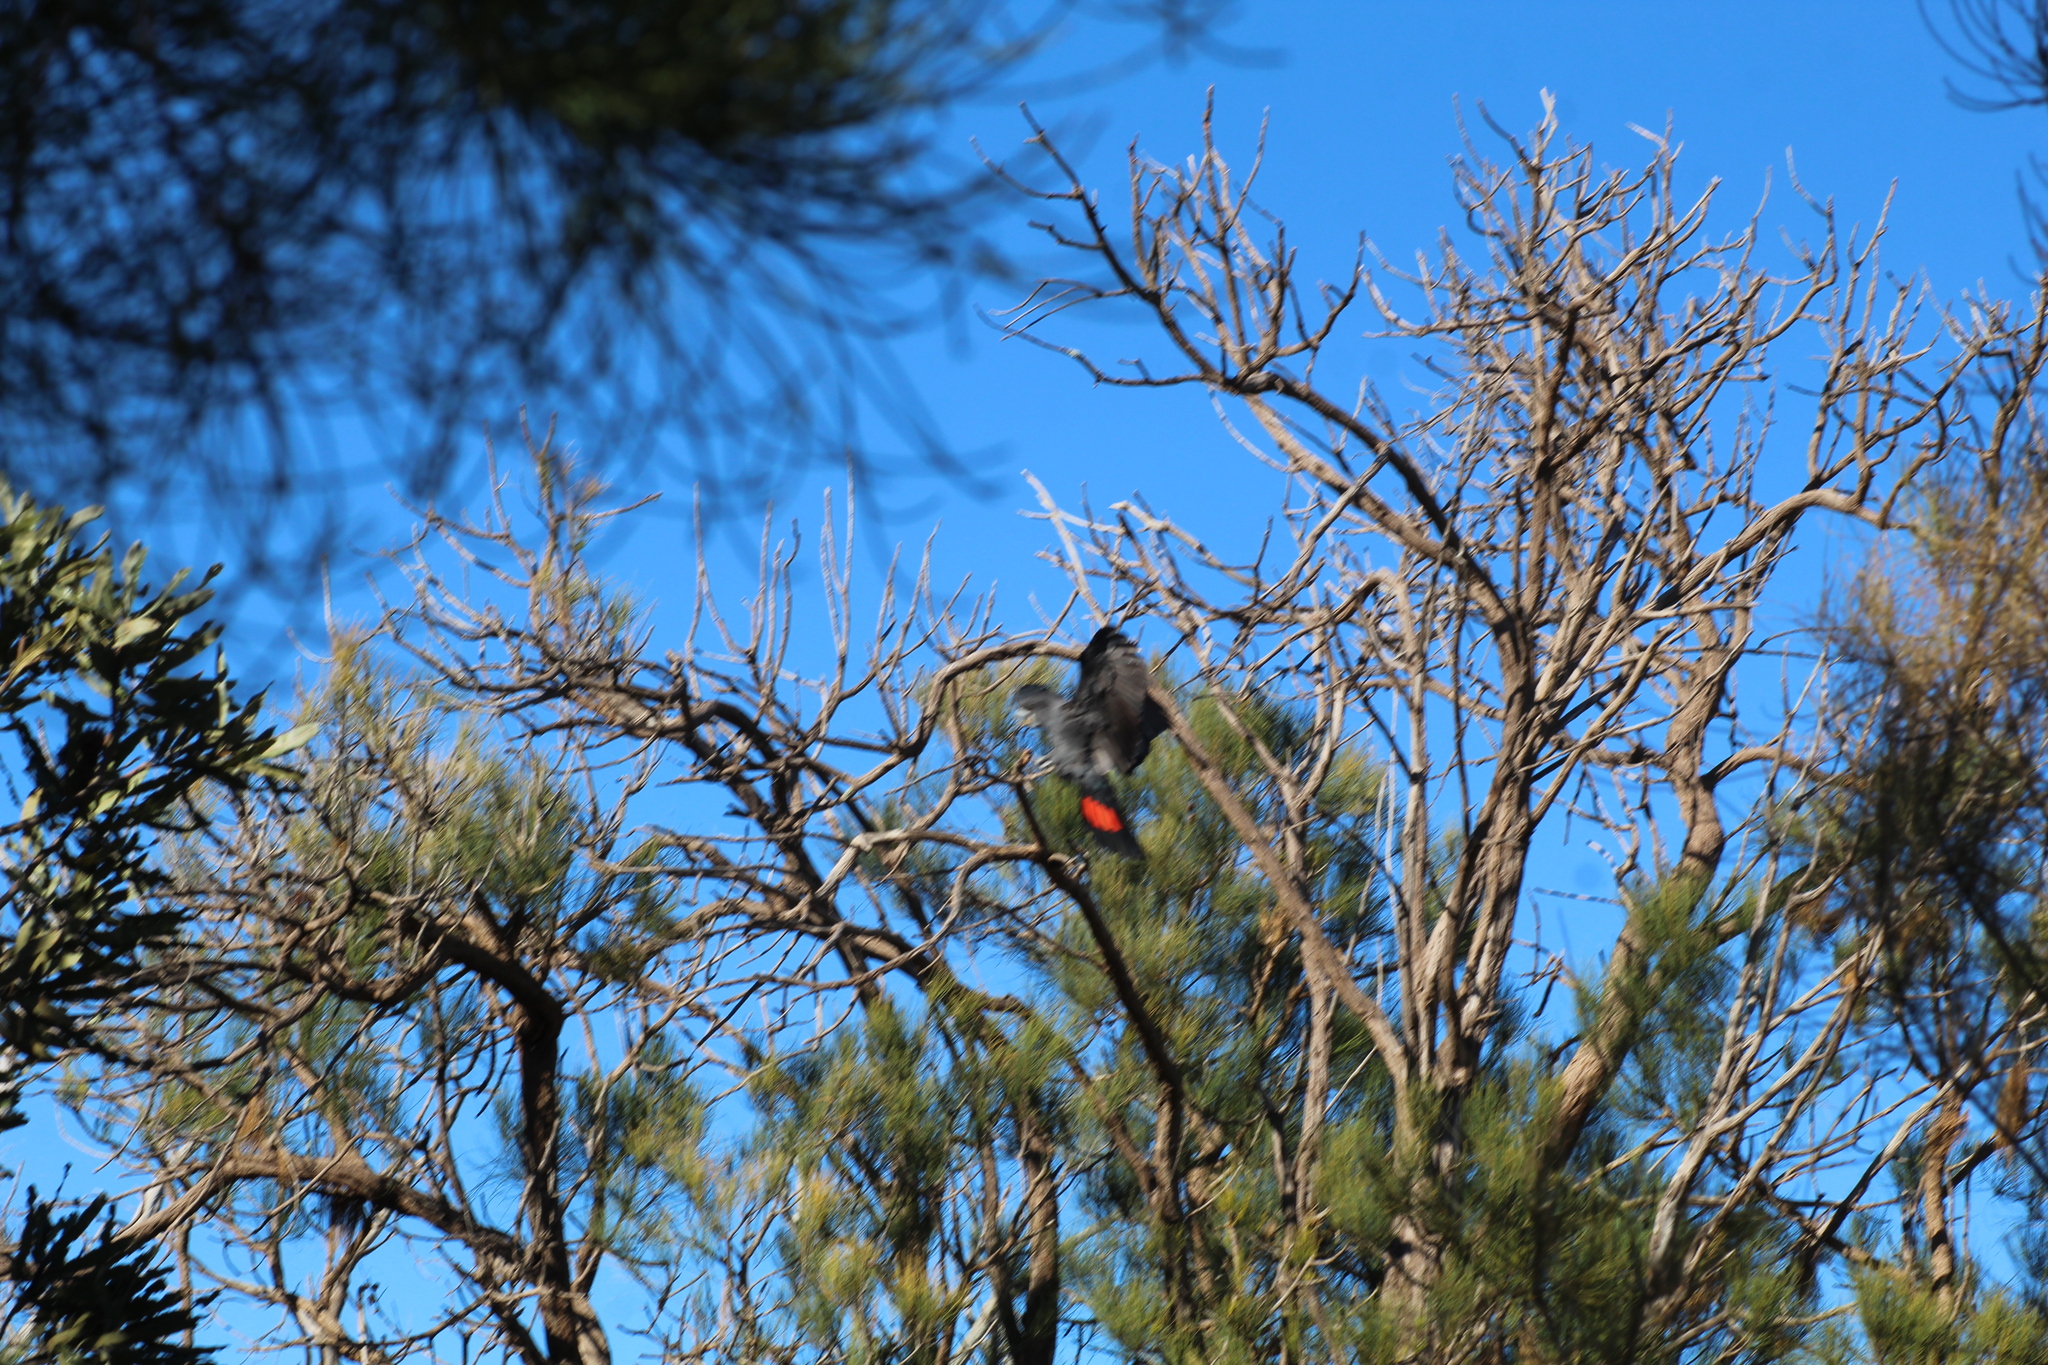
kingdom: Animalia
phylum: Chordata
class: Aves
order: Psittaciformes
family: Psittacidae
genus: Calyptorhynchus
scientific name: Calyptorhynchus banksii
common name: Red-tailed black cockatoo
